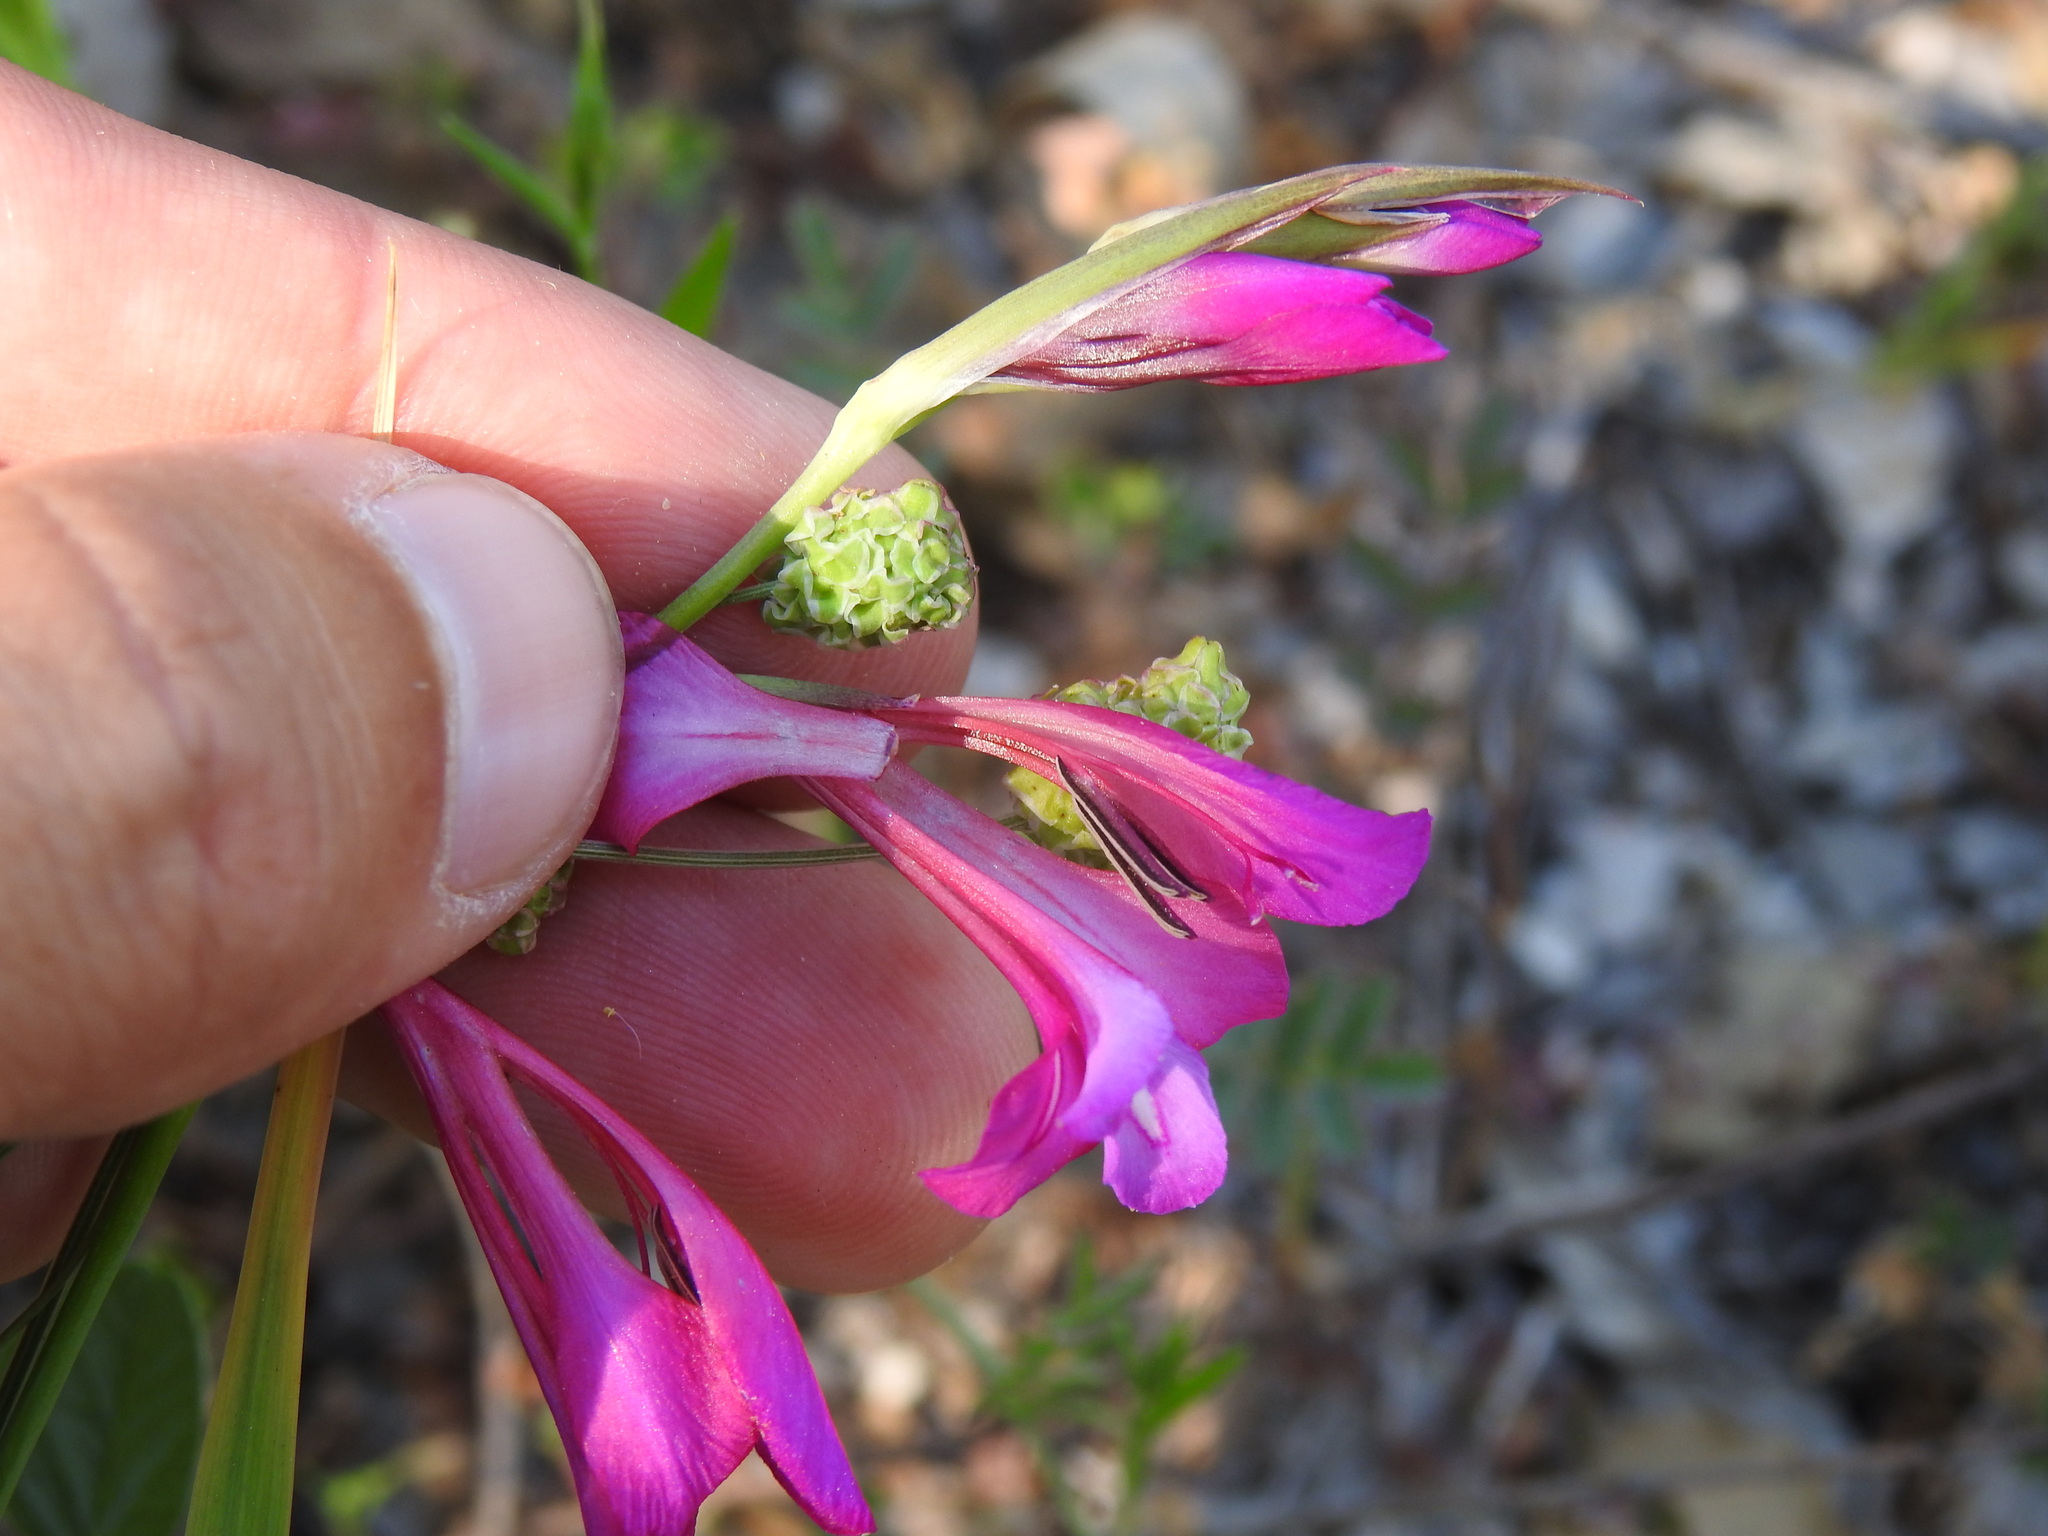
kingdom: Plantae
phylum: Tracheophyta
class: Liliopsida
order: Asparagales
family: Iridaceae
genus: Gladiolus
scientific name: Gladiolus illyricus
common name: Wild gladiolus
